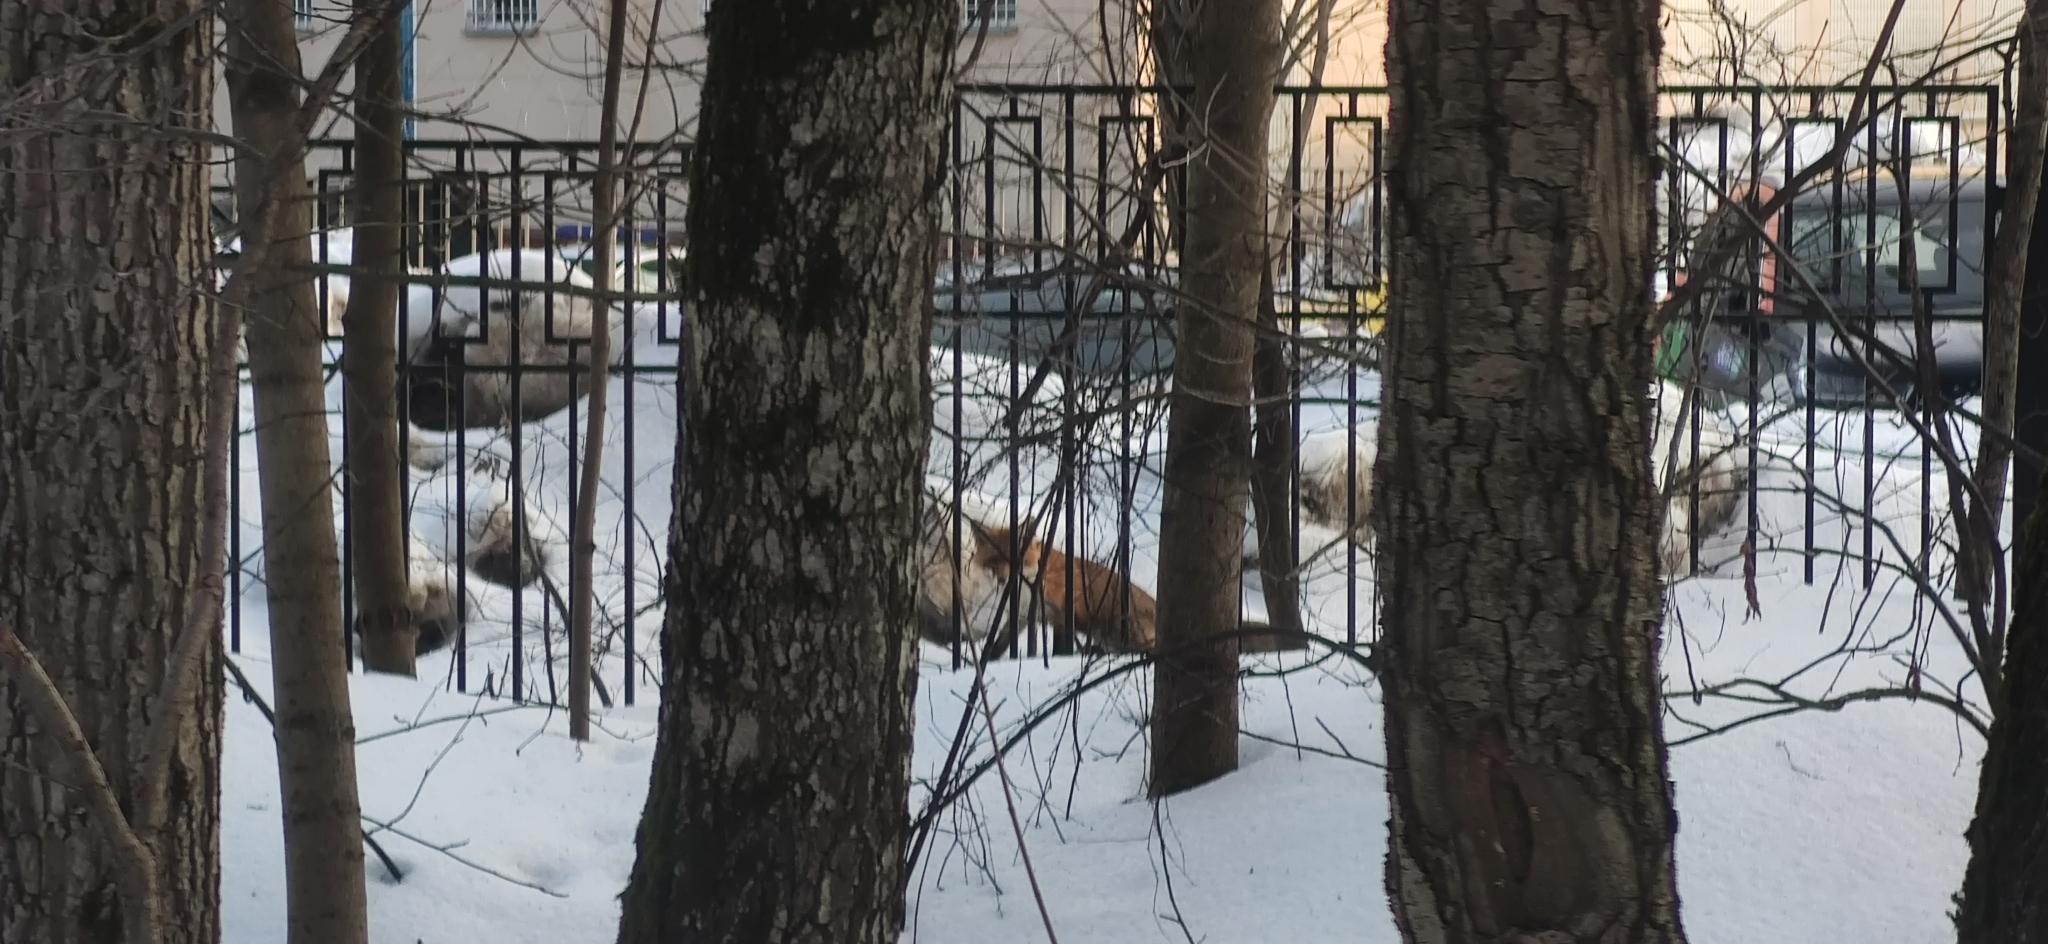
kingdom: Animalia
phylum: Chordata
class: Mammalia
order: Carnivora
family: Canidae
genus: Vulpes
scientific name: Vulpes vulpes
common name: Red fox
